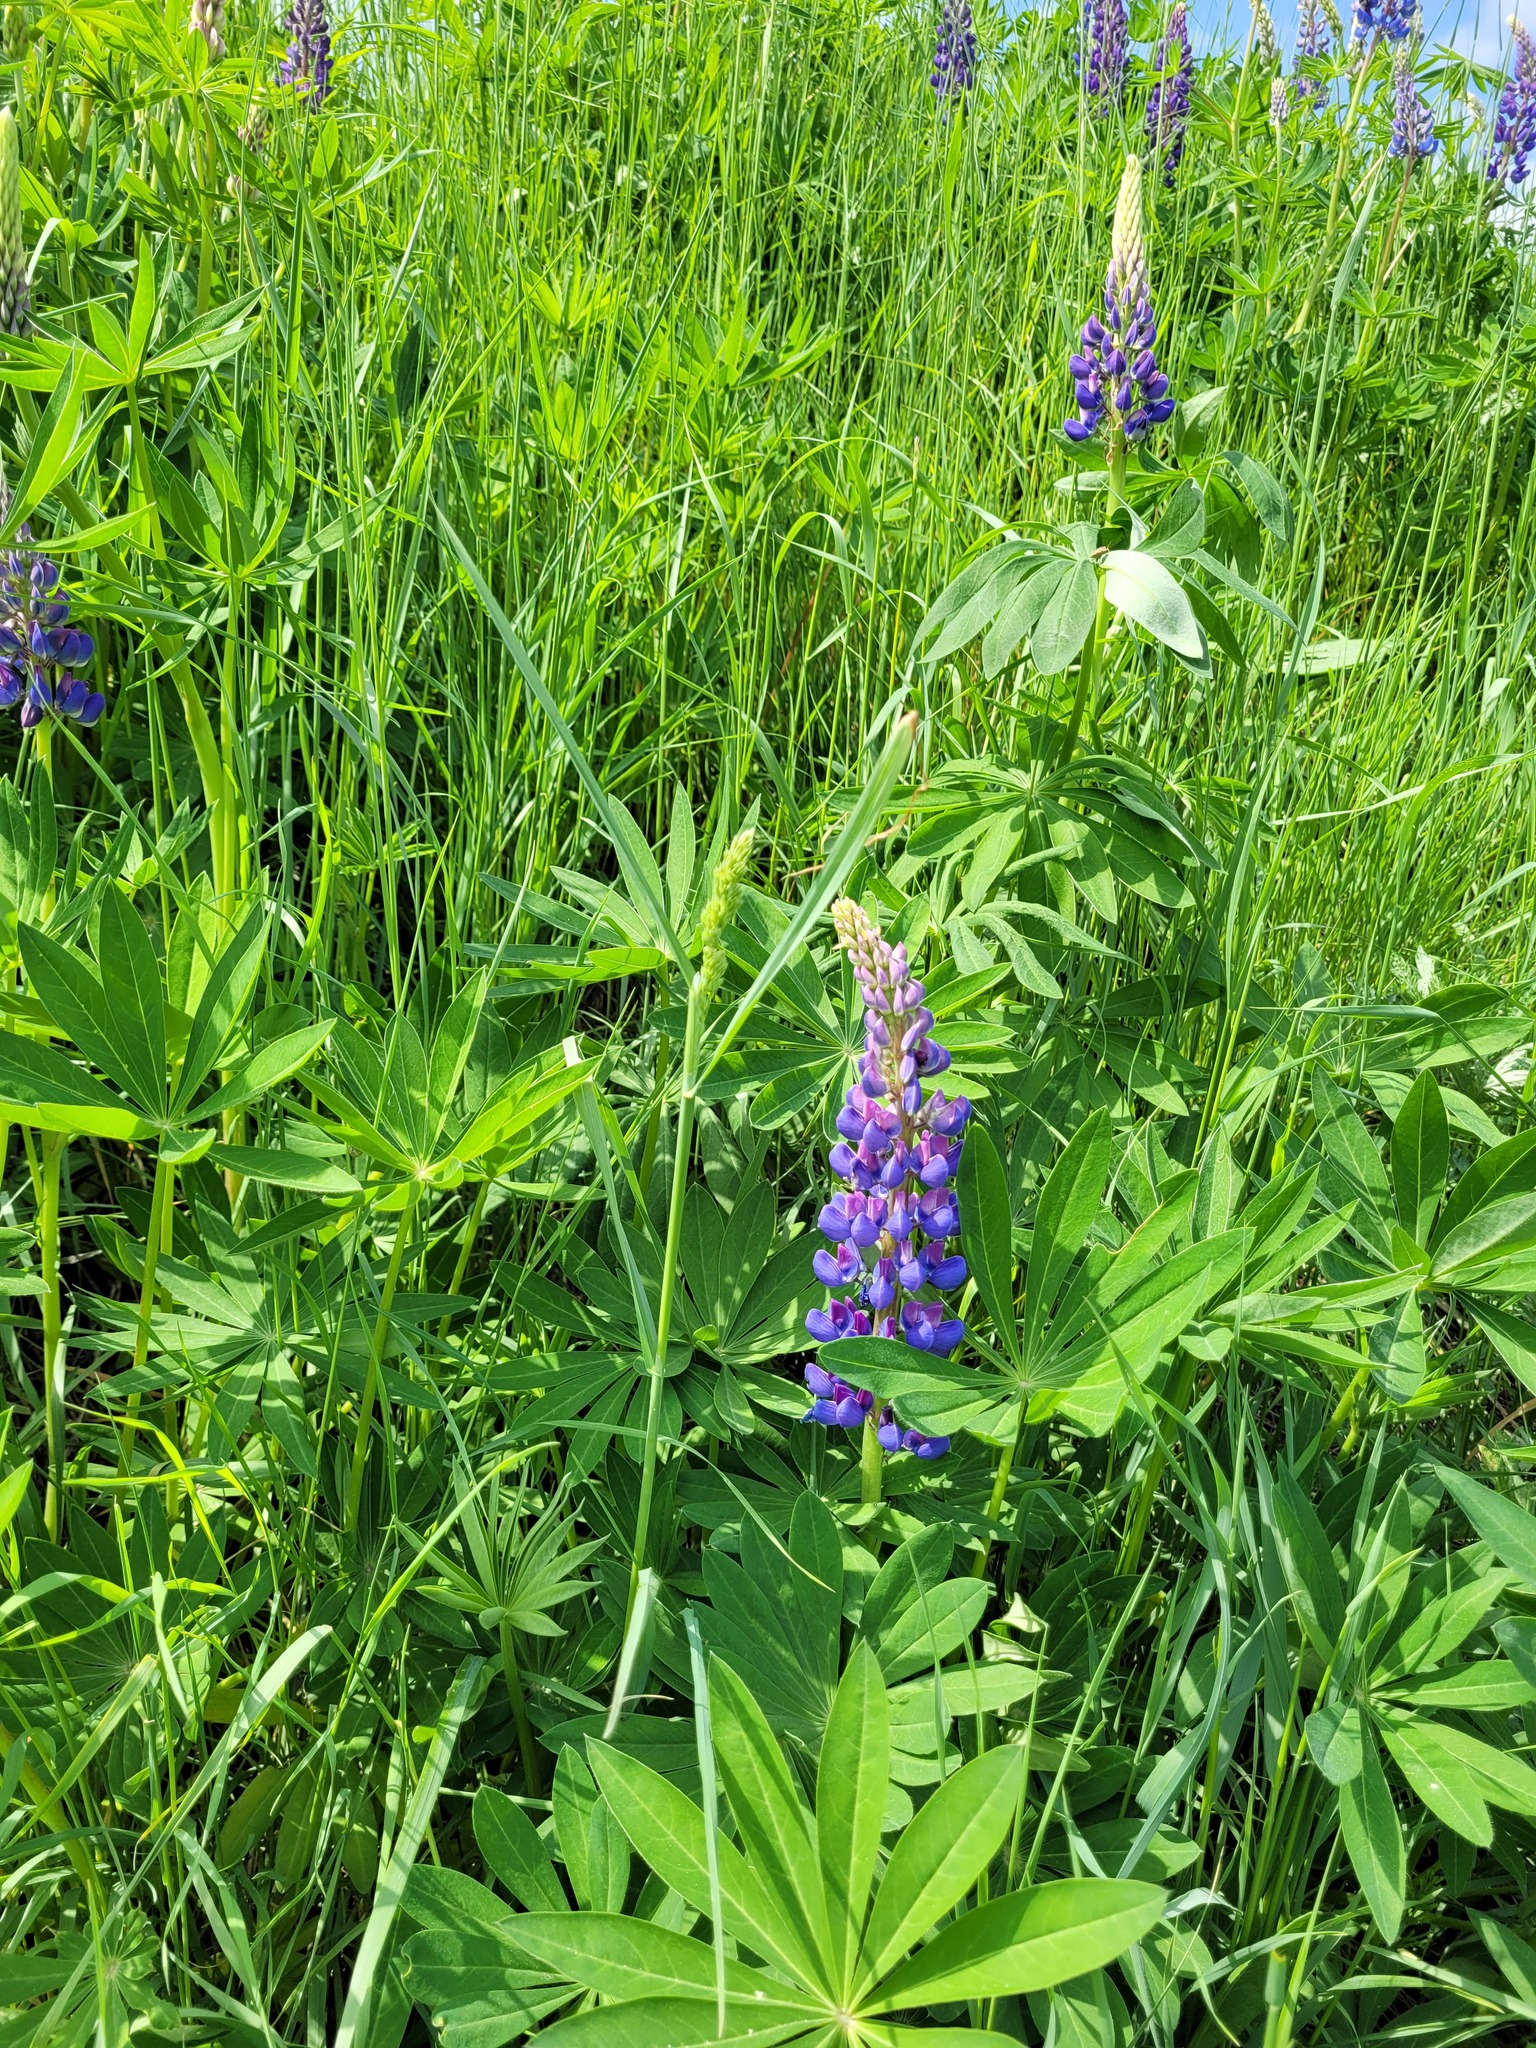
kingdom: Plantae
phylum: Tracheophyta
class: Liliopsida
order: Poales
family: Poaceae
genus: Dactylis
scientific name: Dactylis glomerata
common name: Orchardgrass
